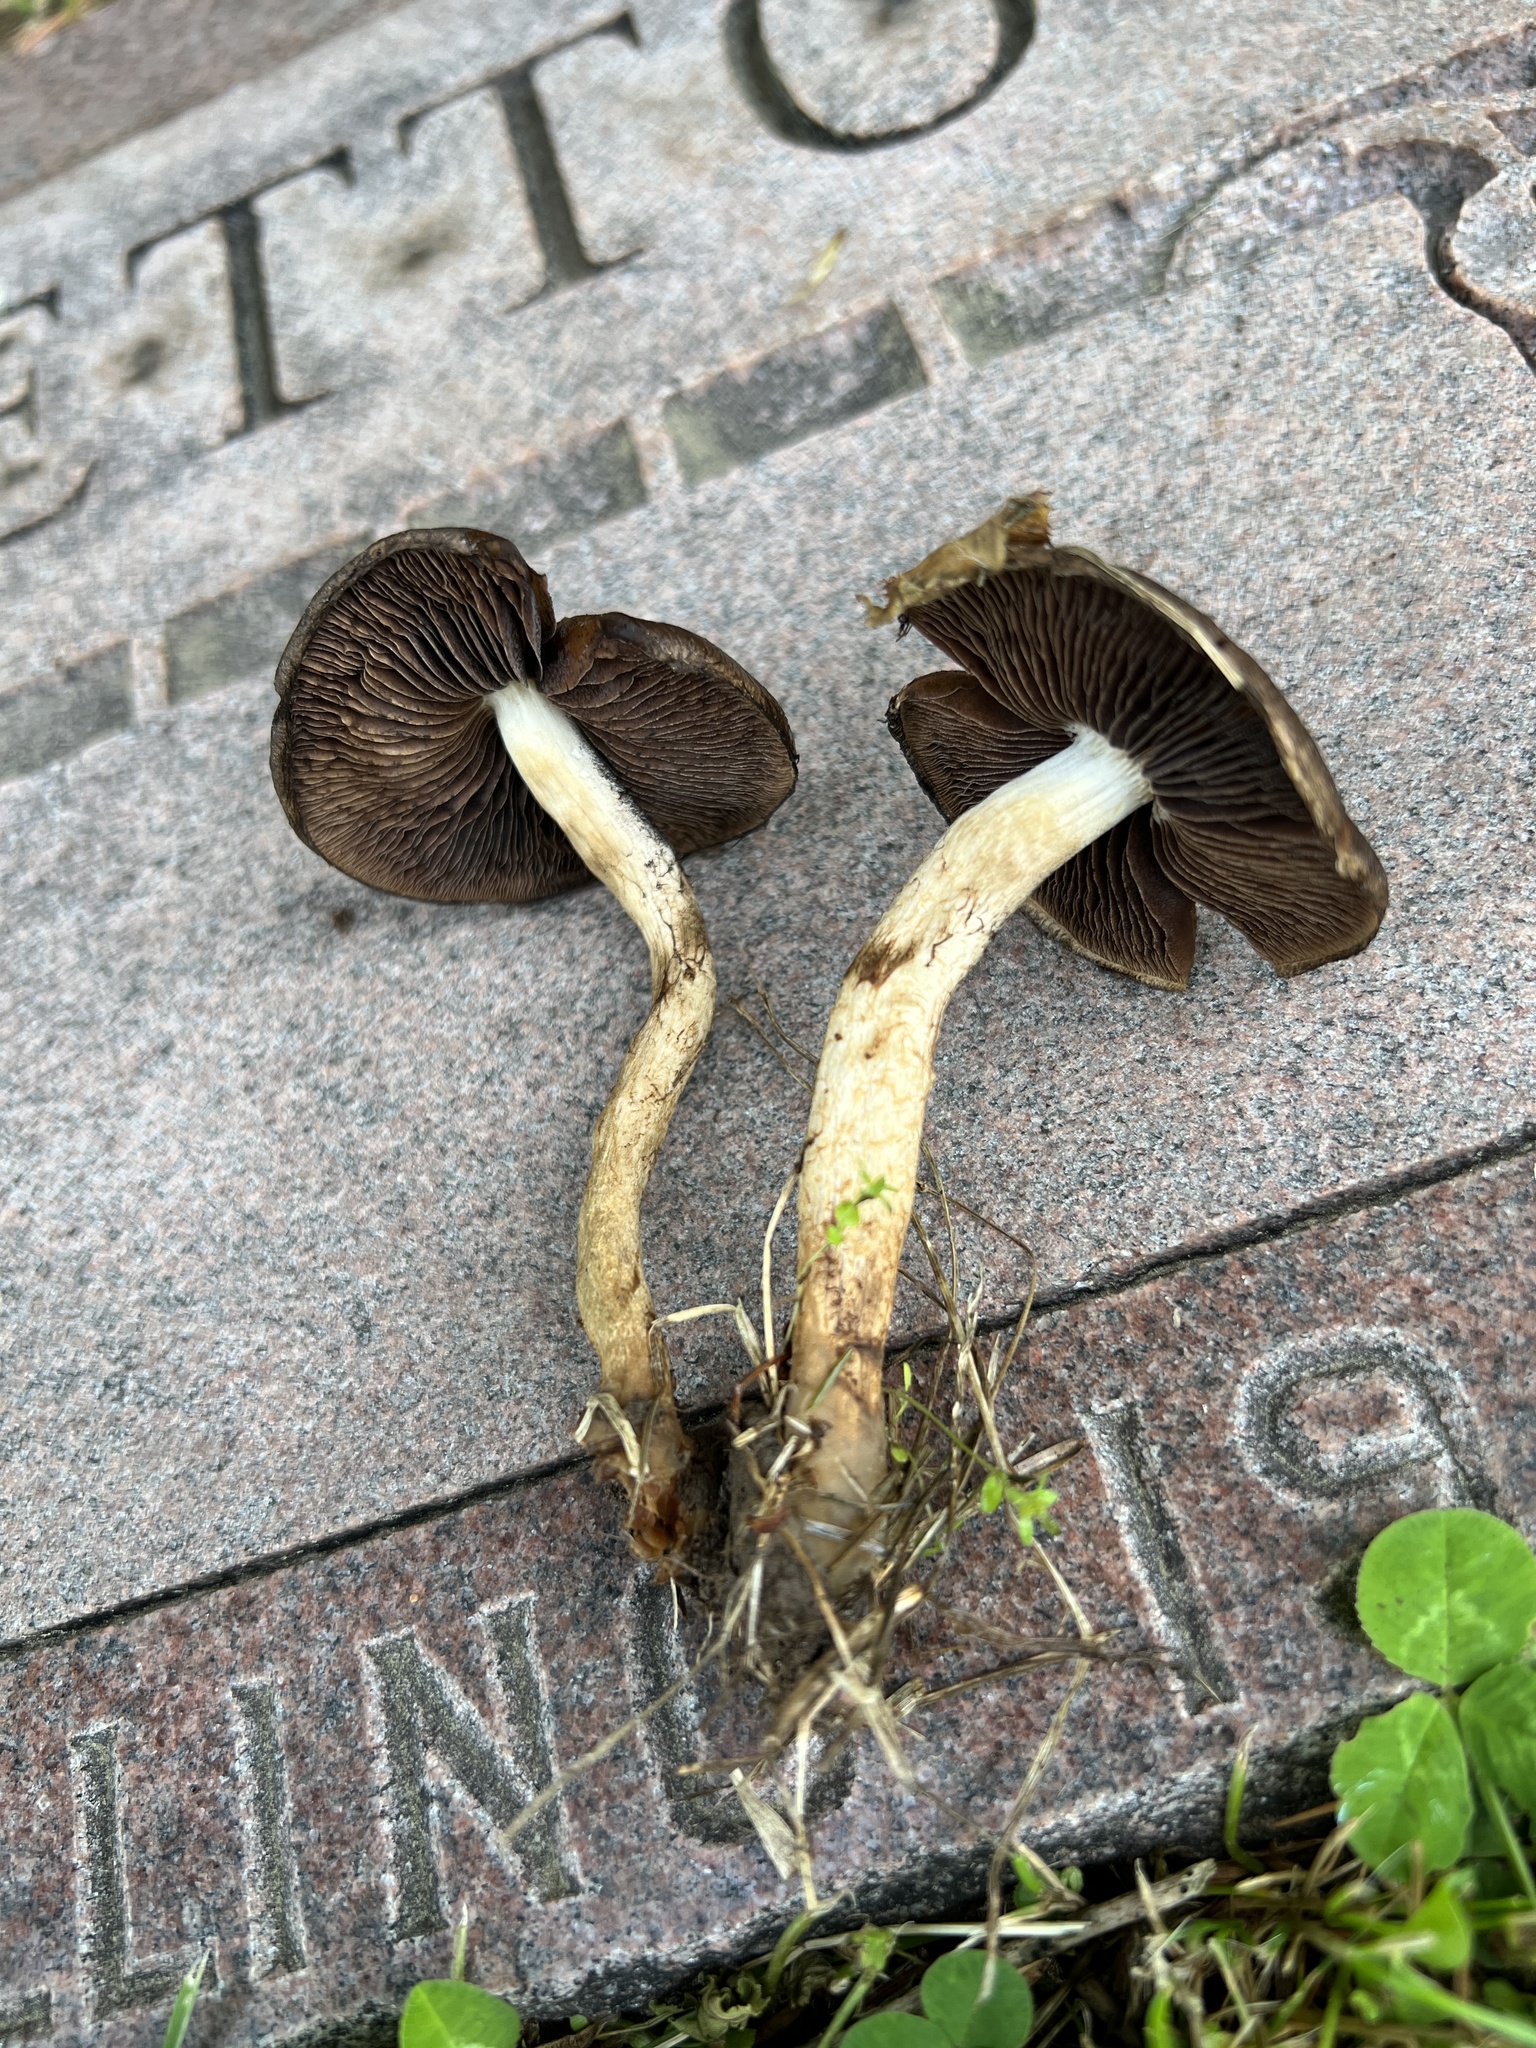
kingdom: Fungi
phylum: Basidiomycota
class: Agaricomycetes
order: Agaricales
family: Psathyrellaceae
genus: Lacrymaria
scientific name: Lacrymaria lacrymabunda
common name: Weeping widow
